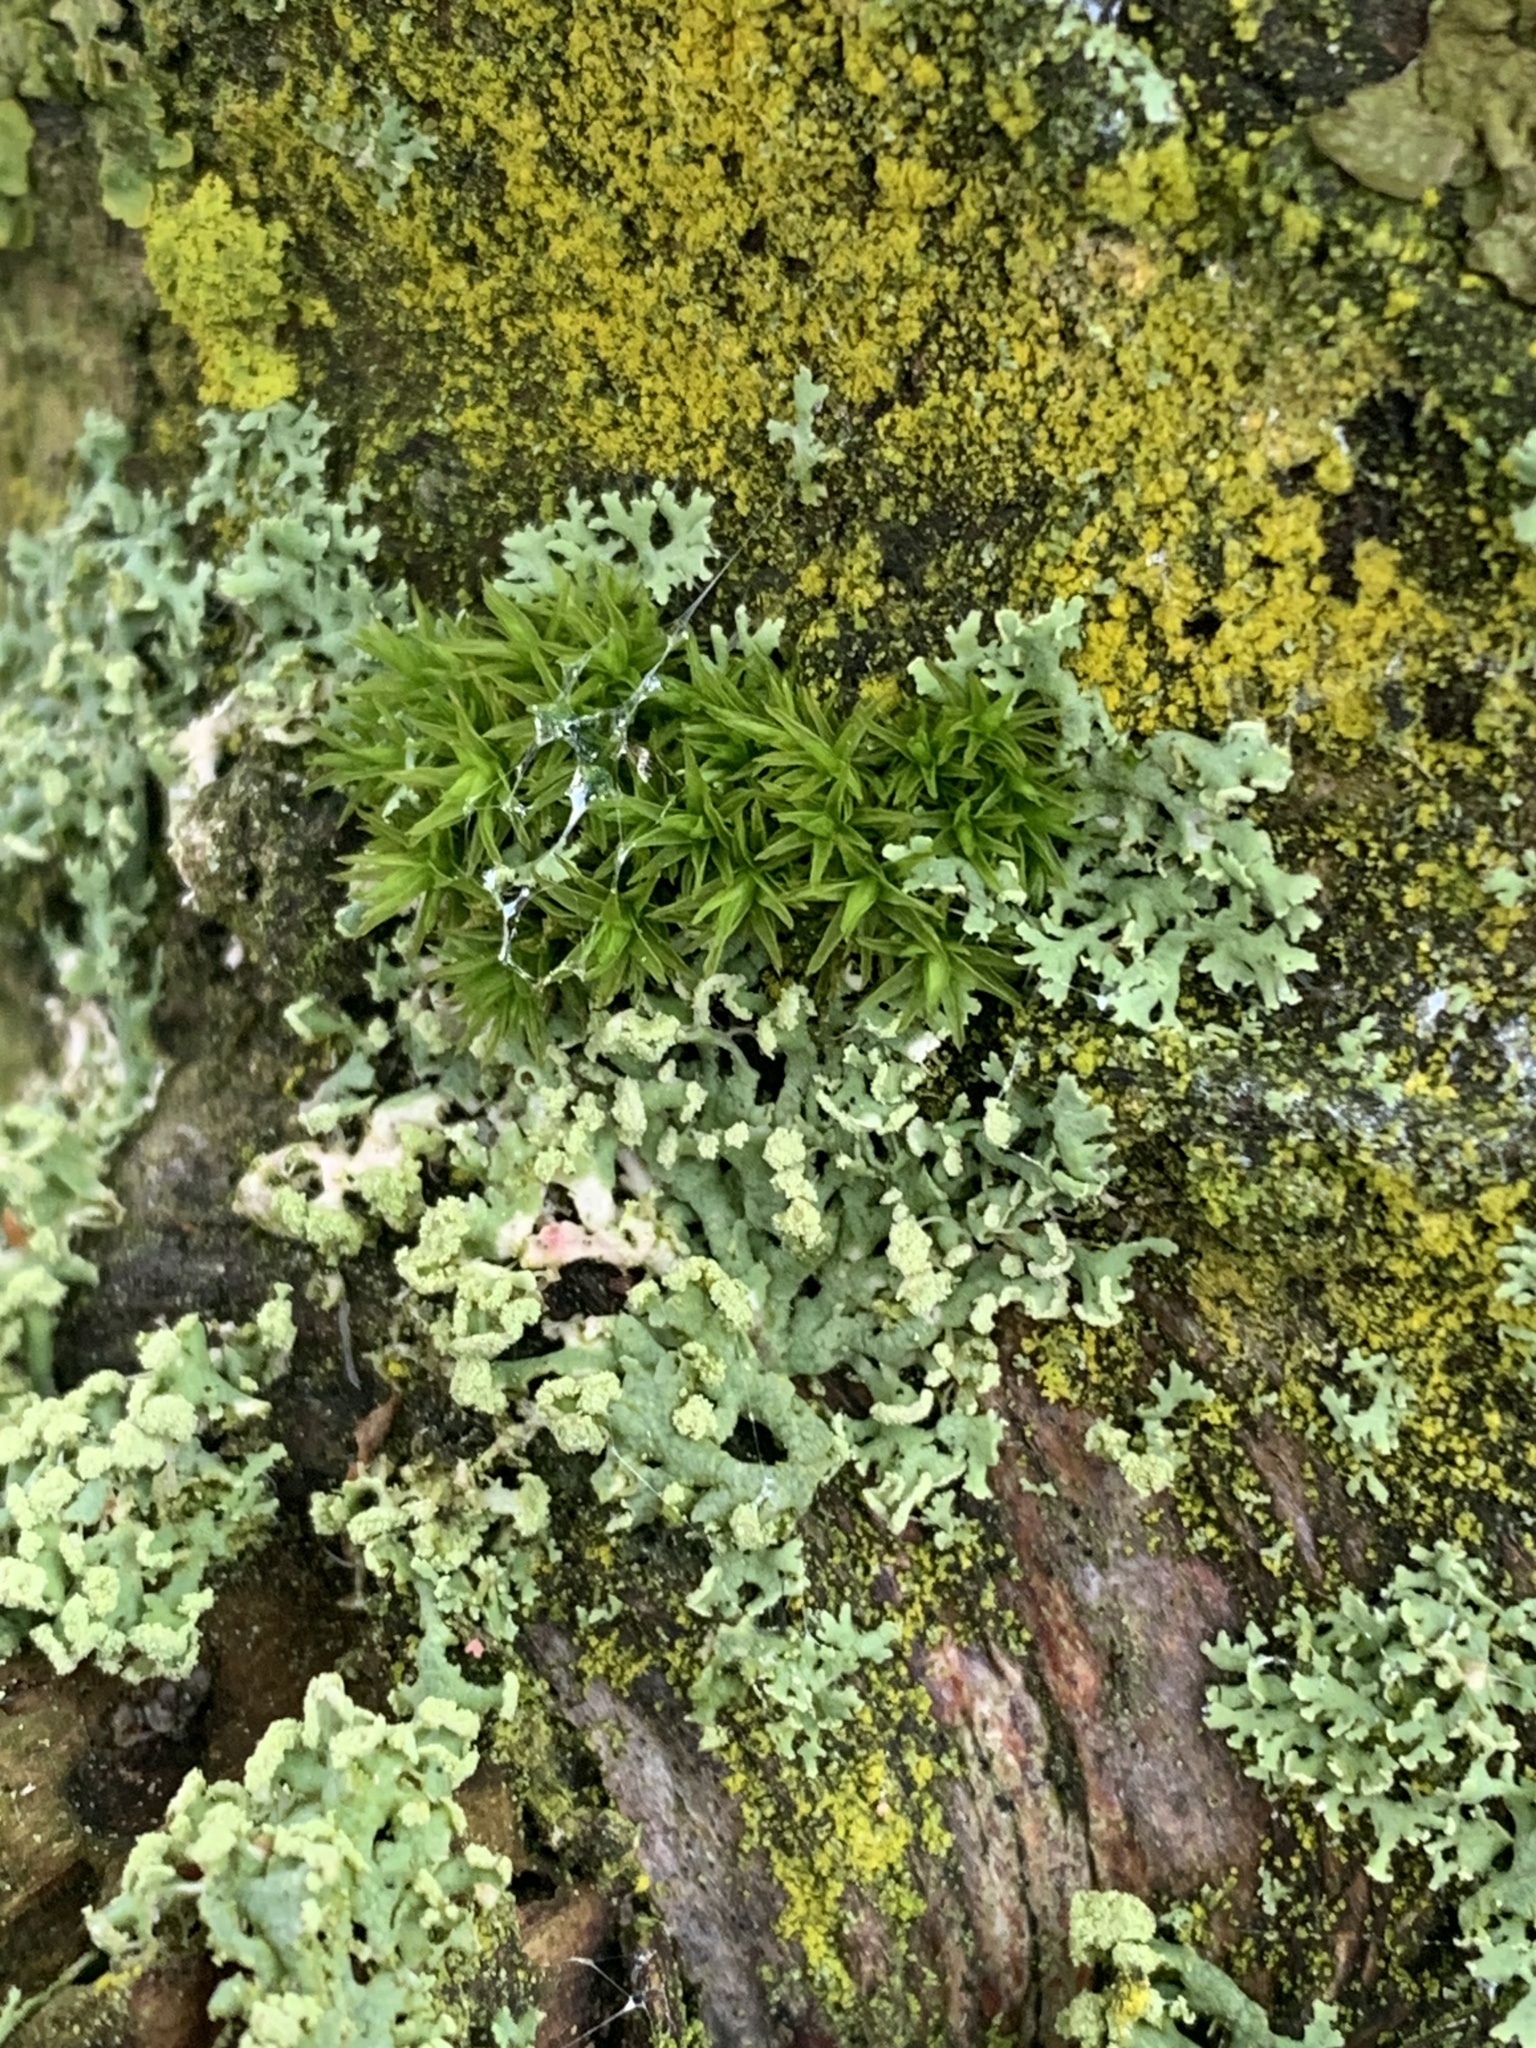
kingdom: Fungi
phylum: Ascomycota
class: Lecanoromycetes
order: Caliciales
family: Physciaceae
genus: Physcia
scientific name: Physcia tenella
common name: Fringed rosette lichen
